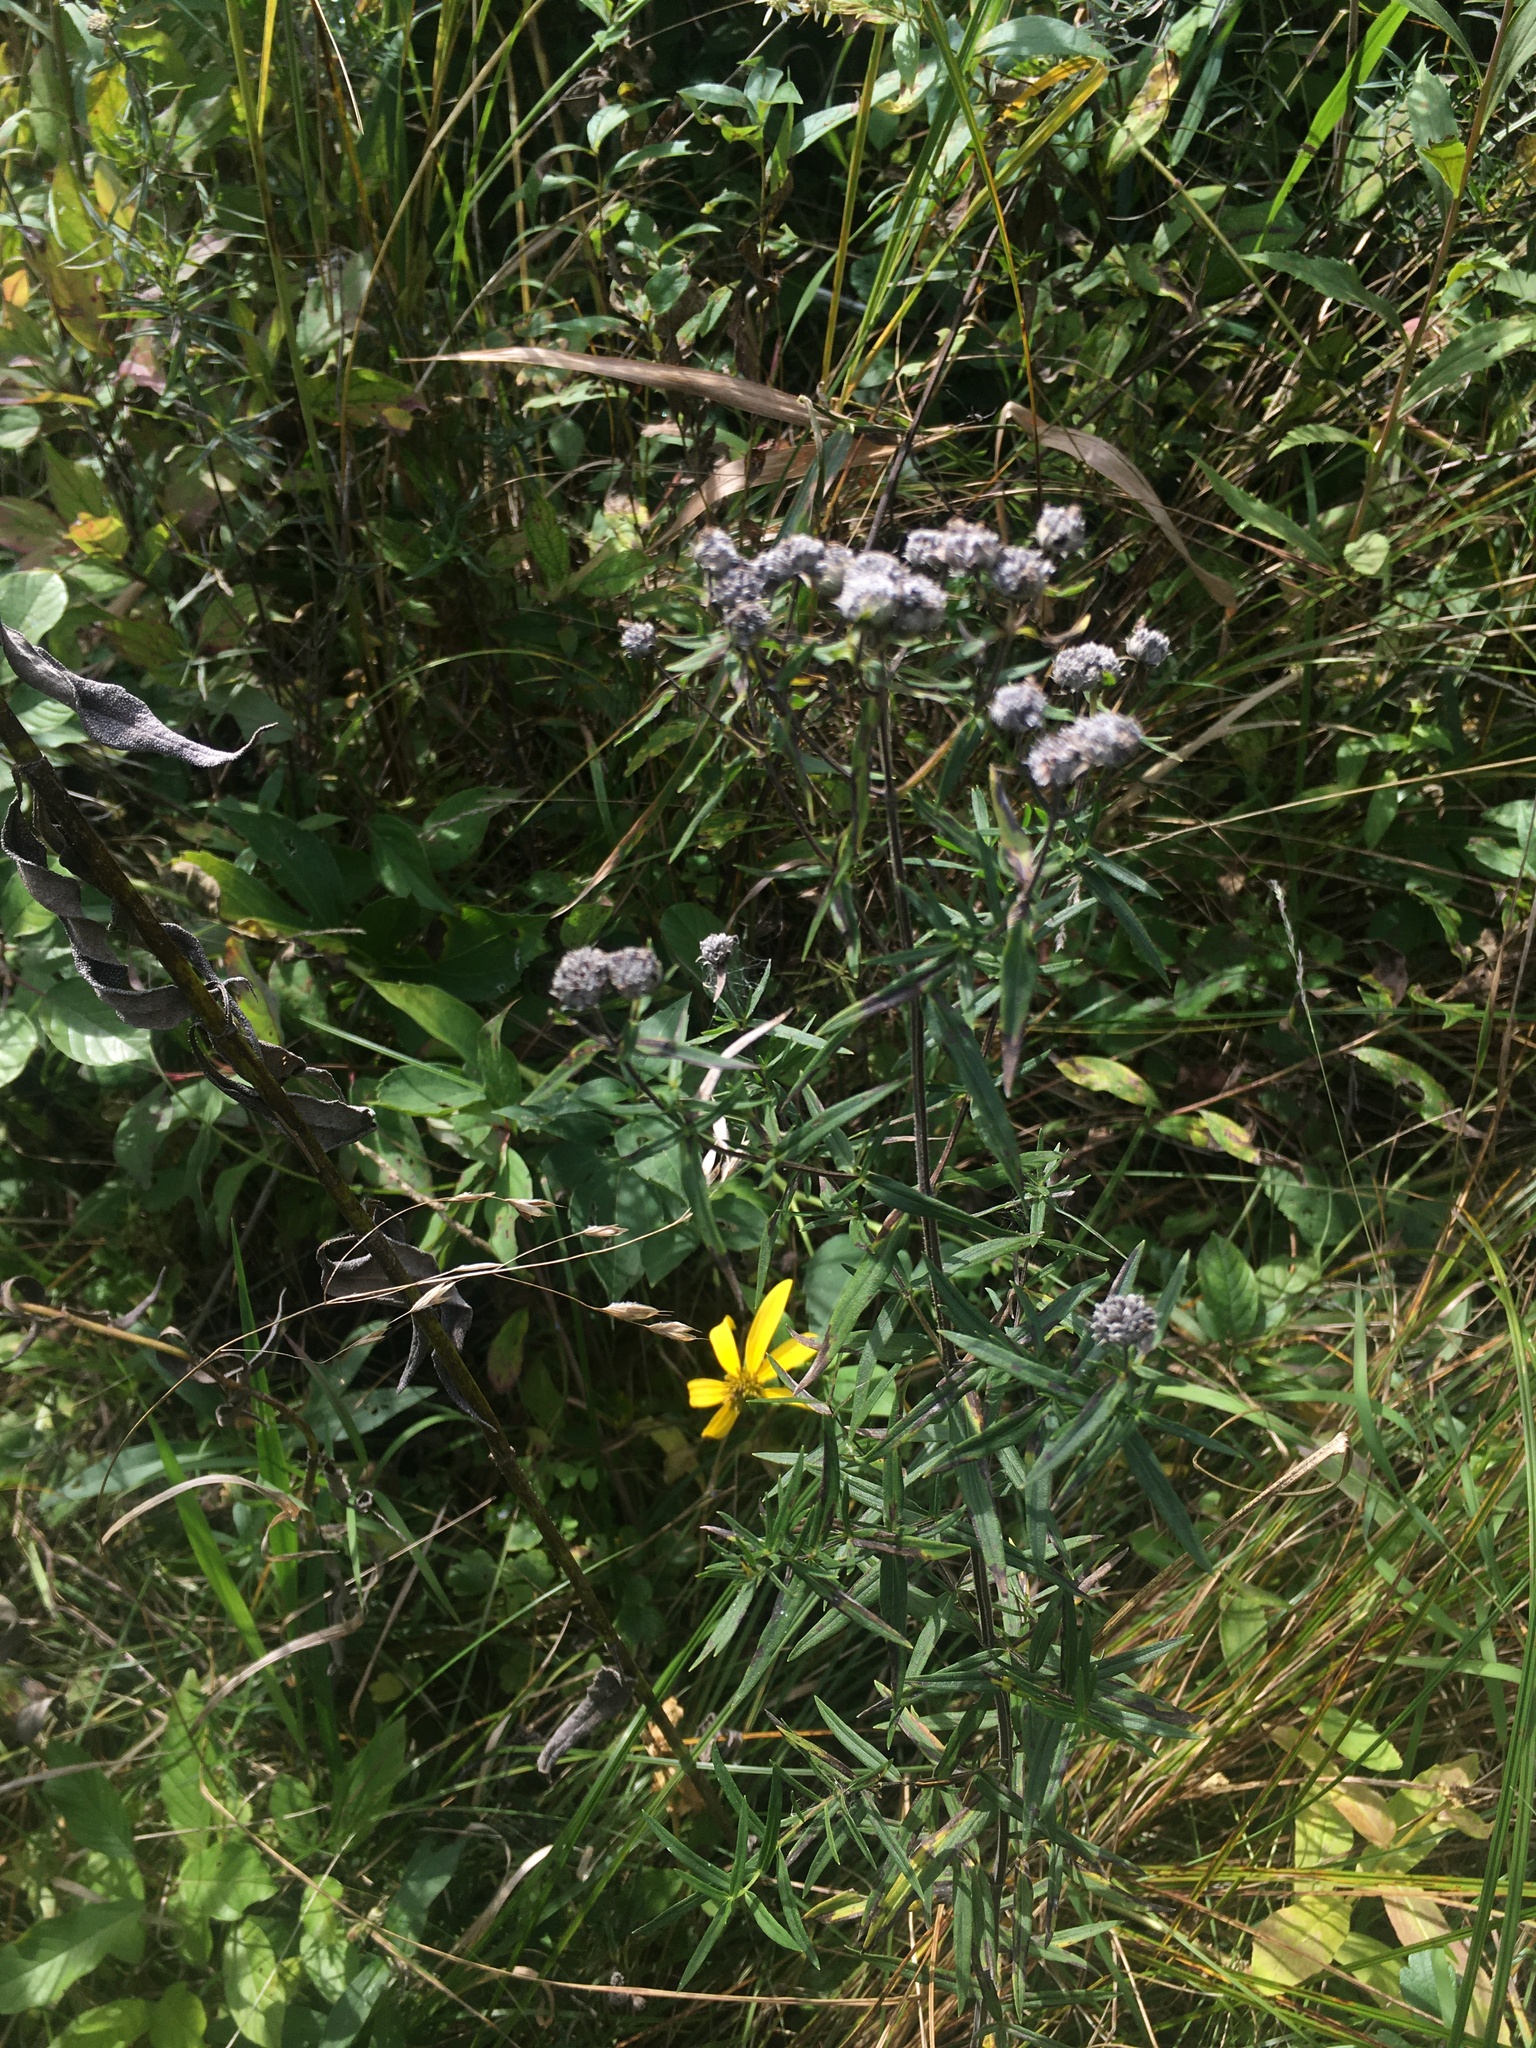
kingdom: Plantae
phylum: Tracheophyta
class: Magnoliopsida
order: Lamiales
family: Lamiaceae
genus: Pycnanthemum
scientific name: Pycnanthemum virginianum
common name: Virginia mountain-mint
